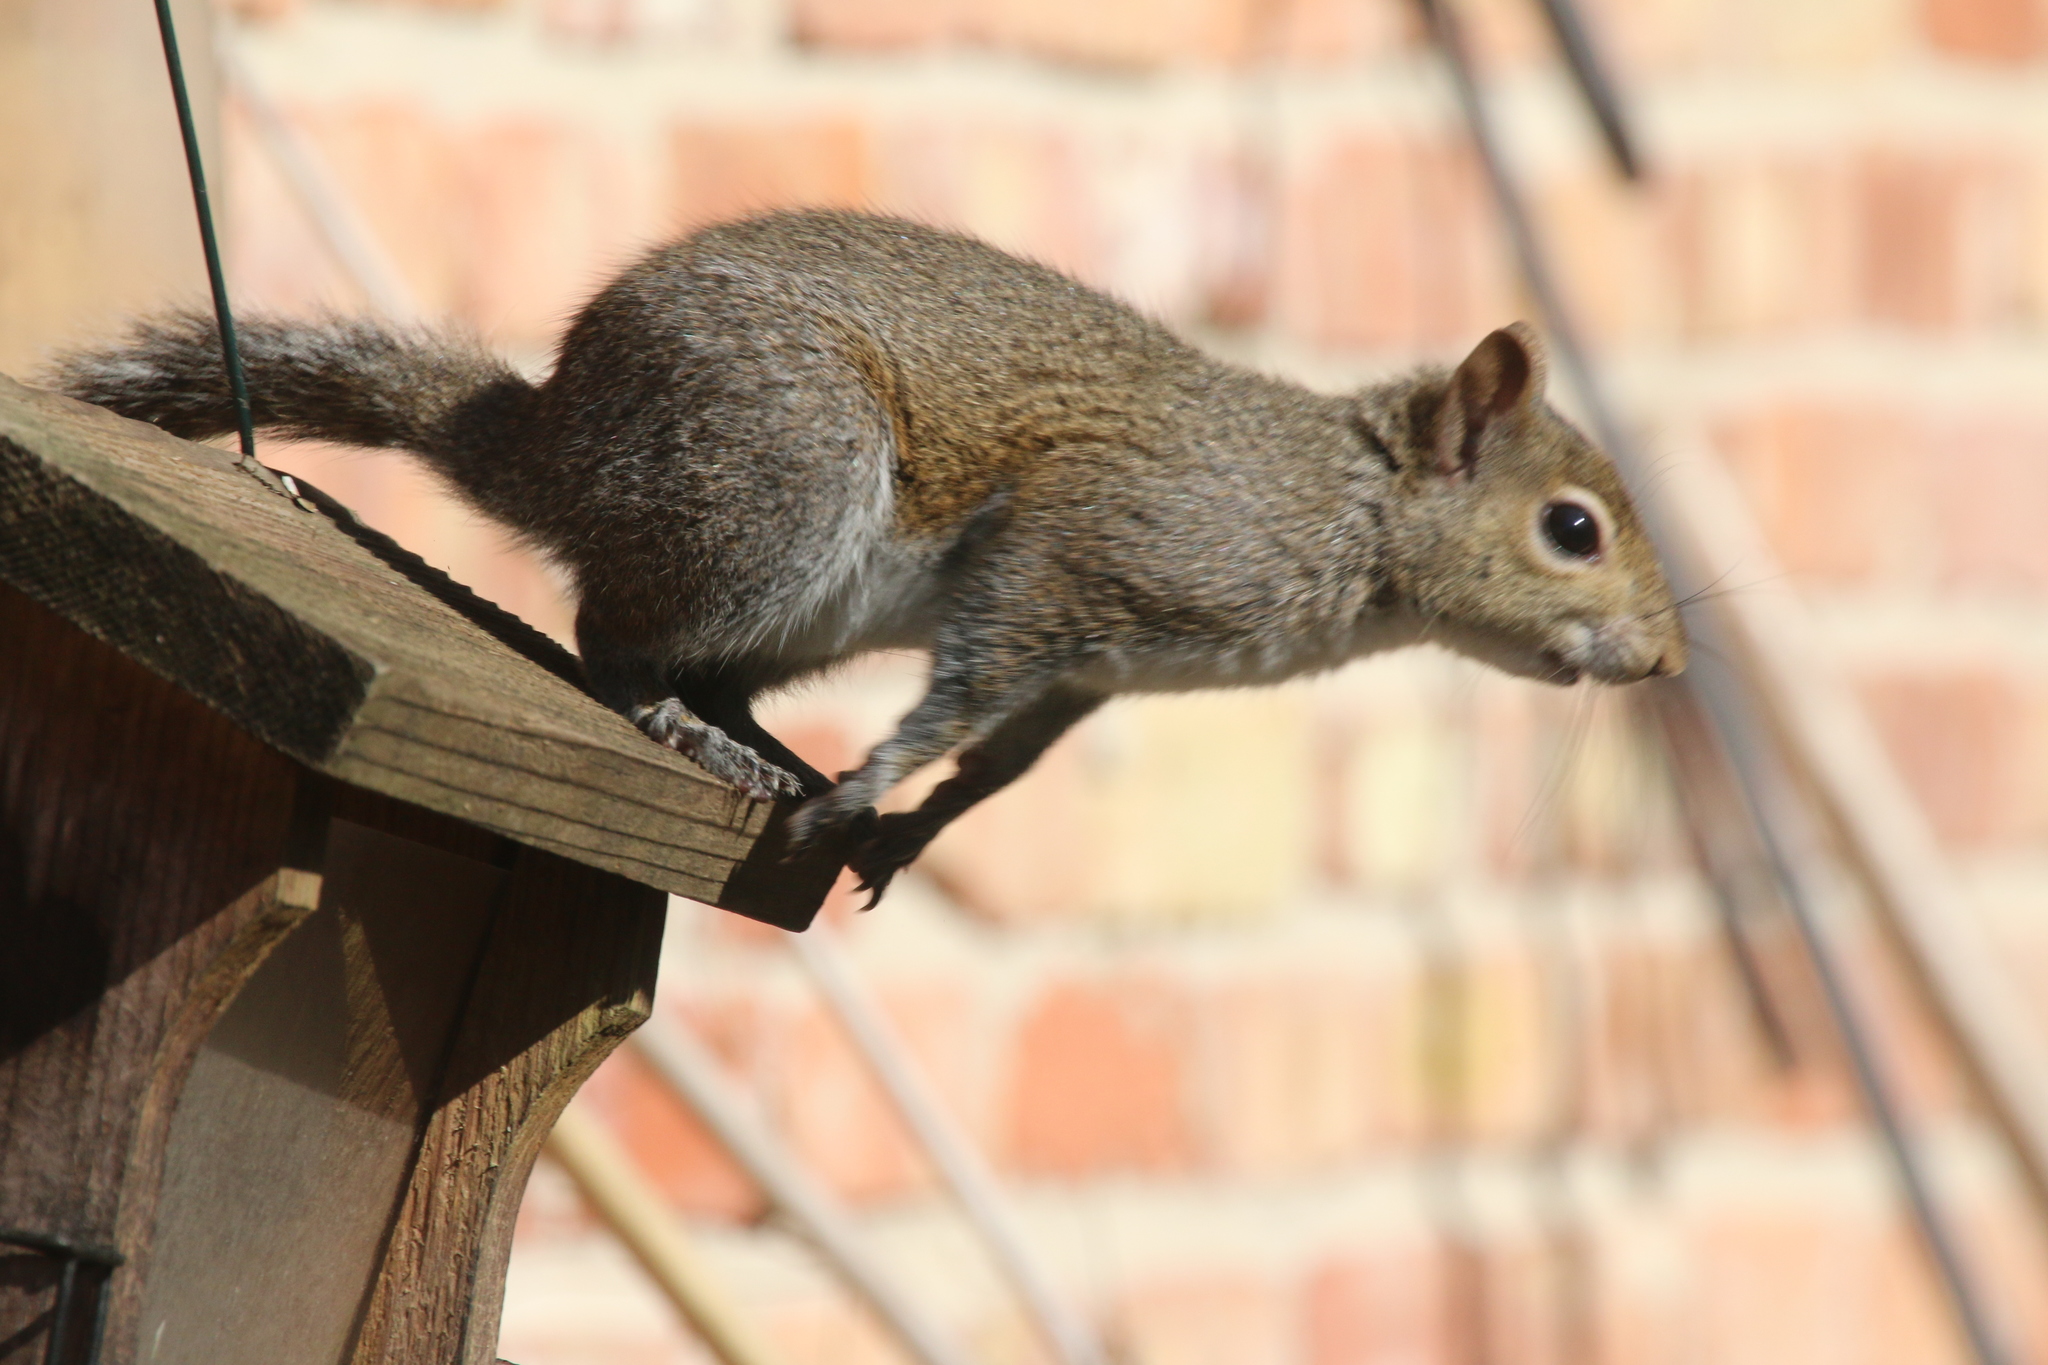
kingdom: Animalia
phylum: Chordata
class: Mammalia
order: Rodentia
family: Sciuridae
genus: Sciurus
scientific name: Sciurus carolinensis
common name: Eastern gray squirrel
